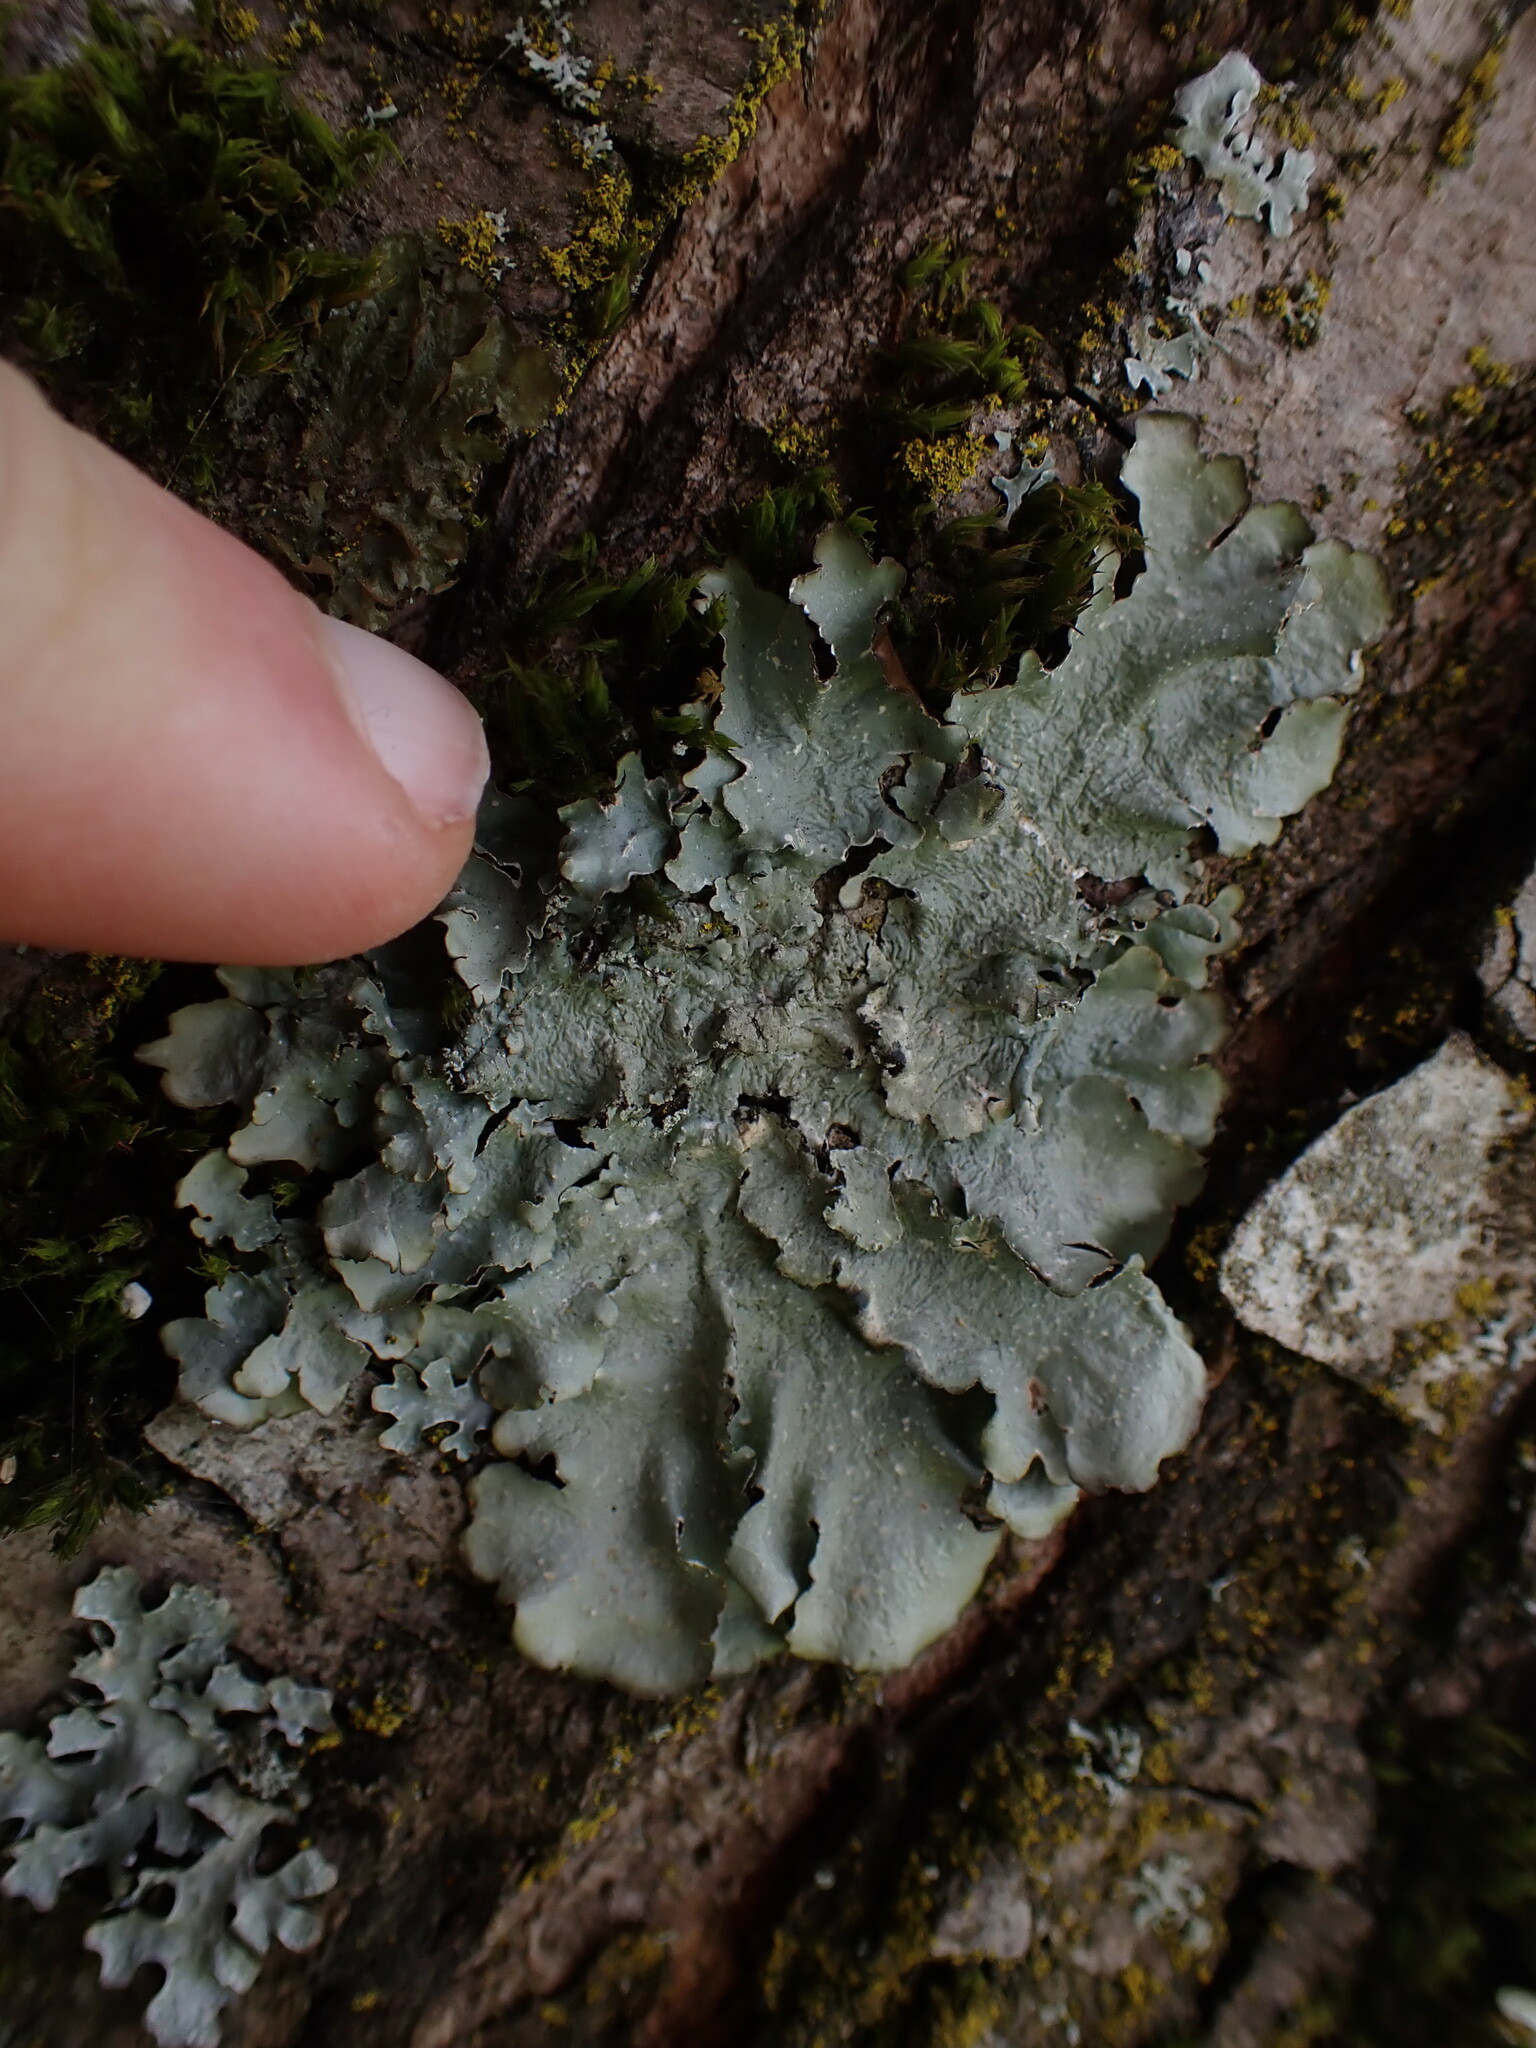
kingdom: Fungi
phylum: Ascomycota
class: Lecanoromycetes
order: Lecanorales
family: Parmeliaceae
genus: Punctelia
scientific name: Punctelia jeckeri
